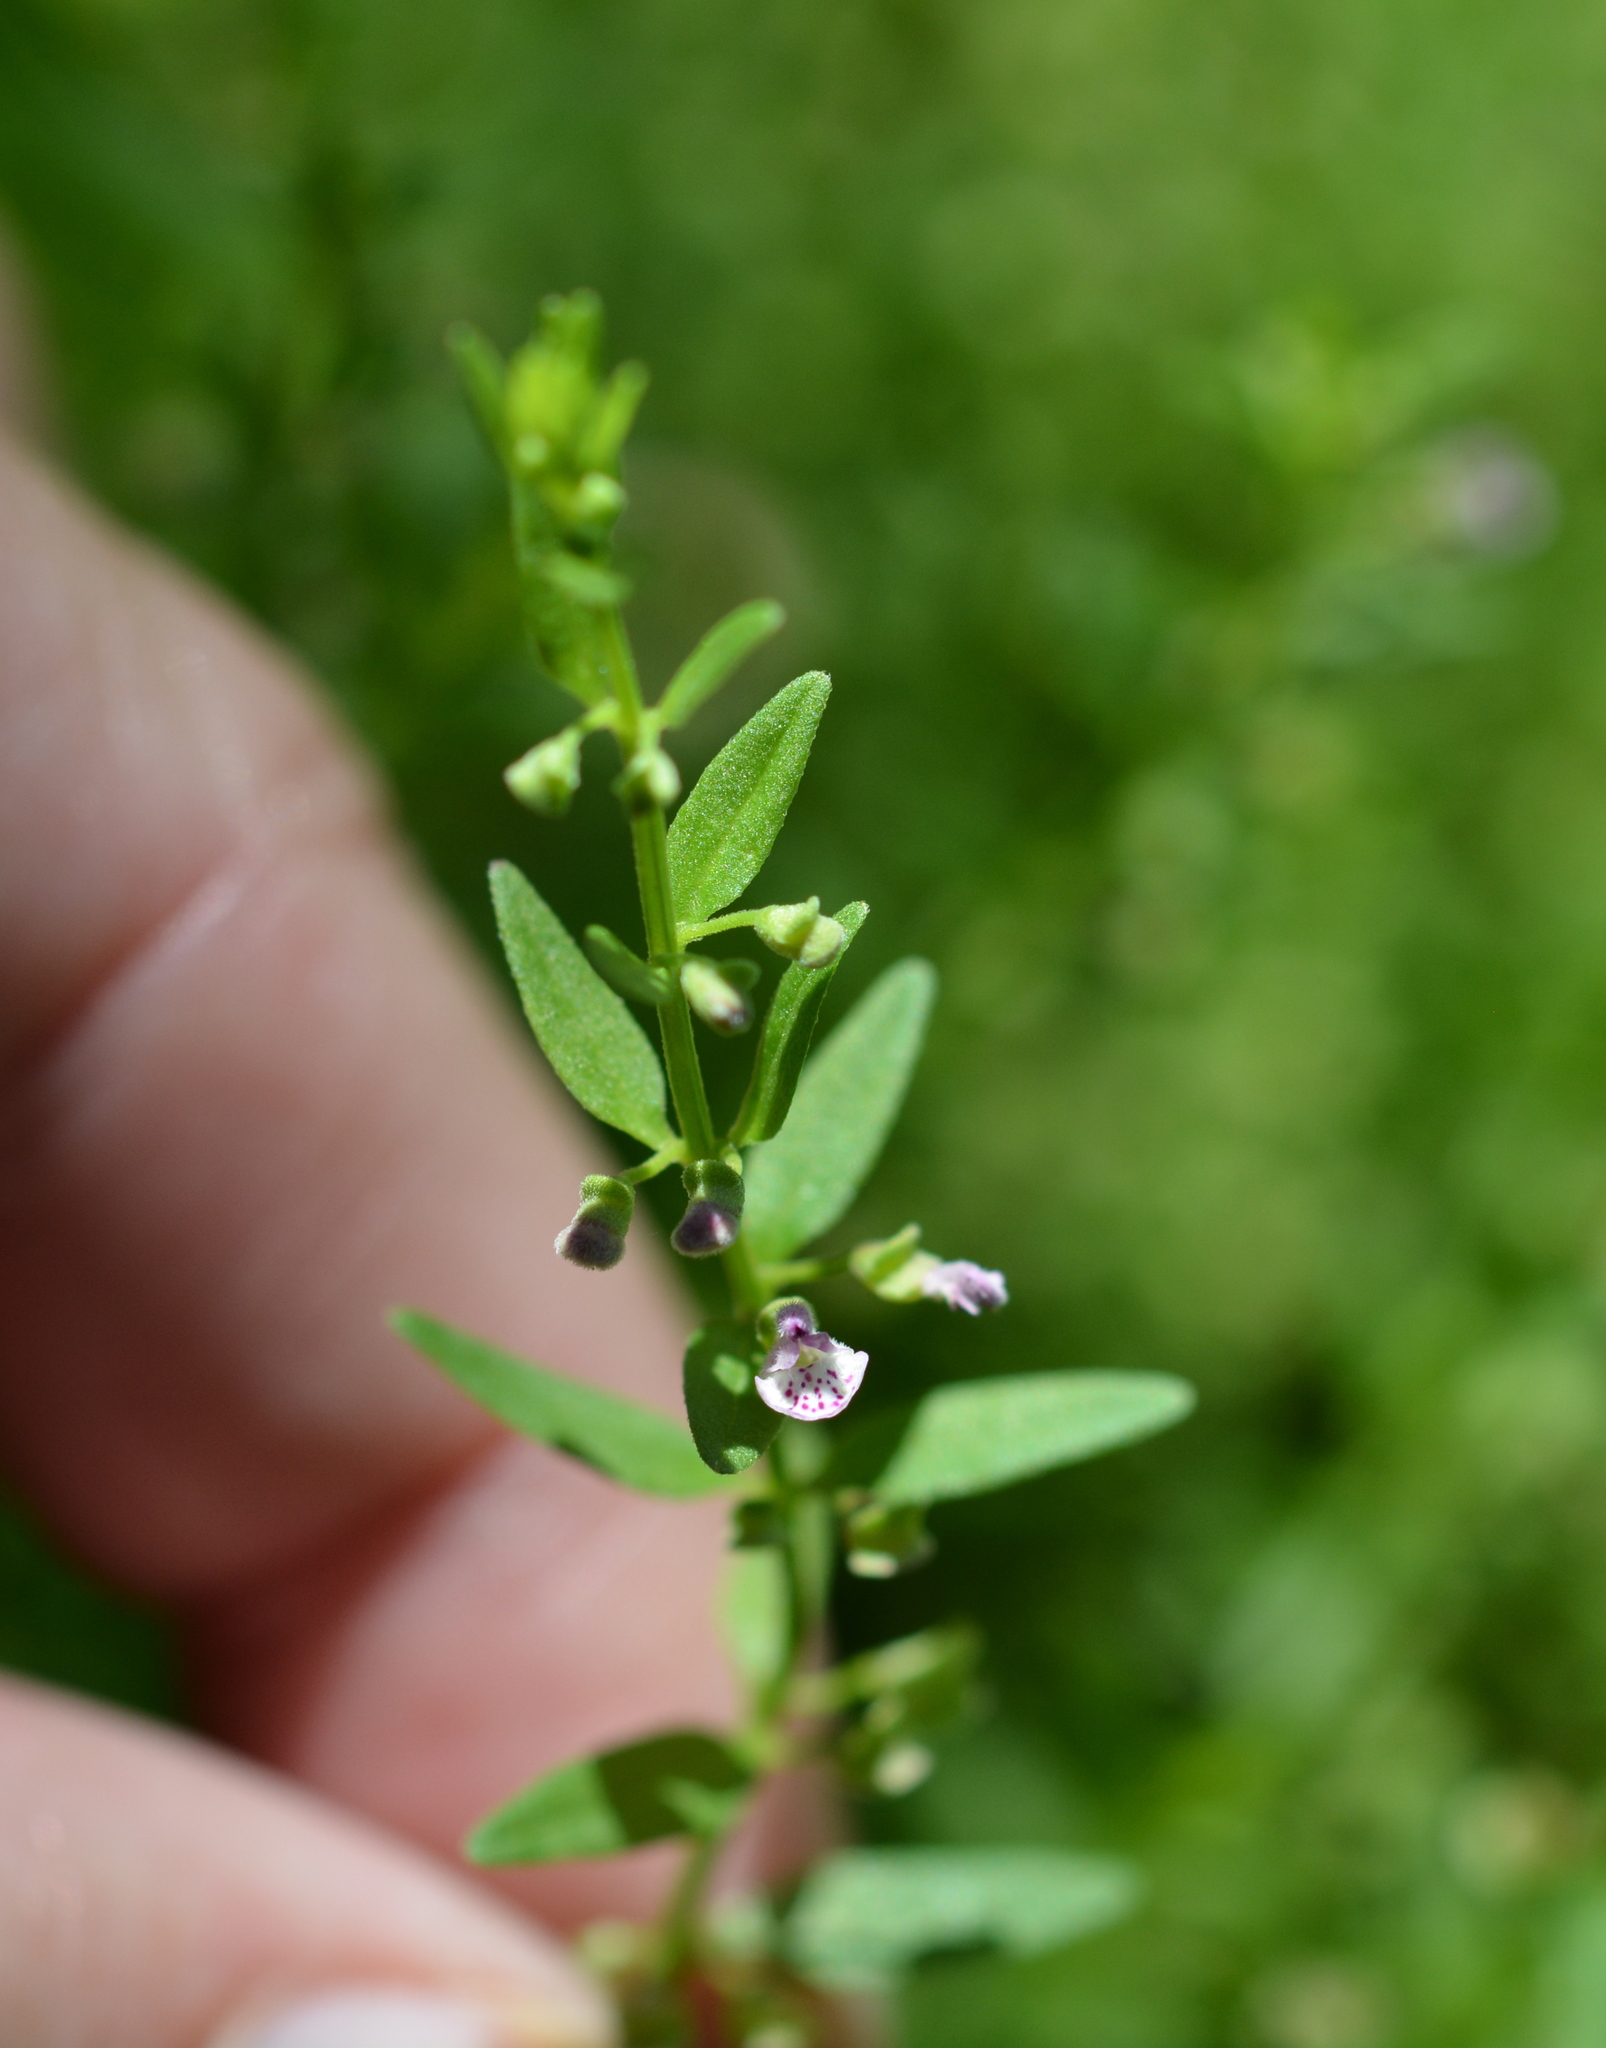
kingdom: Plantae
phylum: Tracheophyta
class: Magnoliopsida
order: Lamiales
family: Lamiaceae
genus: Scutellaria
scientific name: Scutellaria racemosa
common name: South american skullcap
